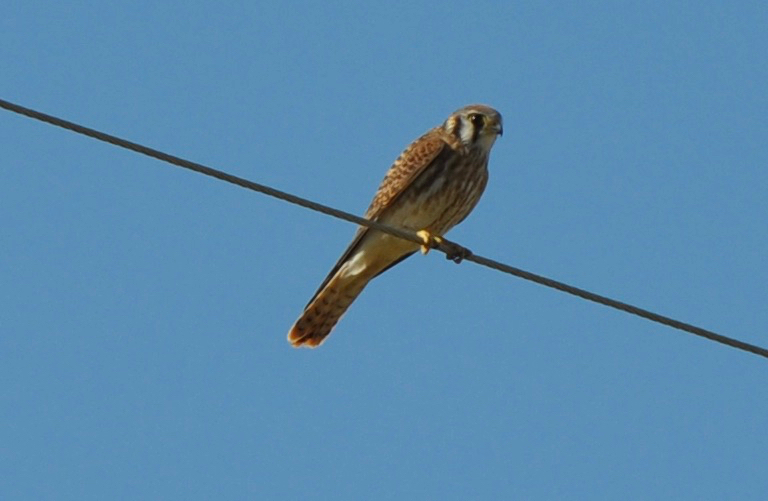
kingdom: Animalia
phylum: Chordata
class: Aves
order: Falconiformes
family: Falconidae
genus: Falco
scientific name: Falco sparverius
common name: American kestrel
